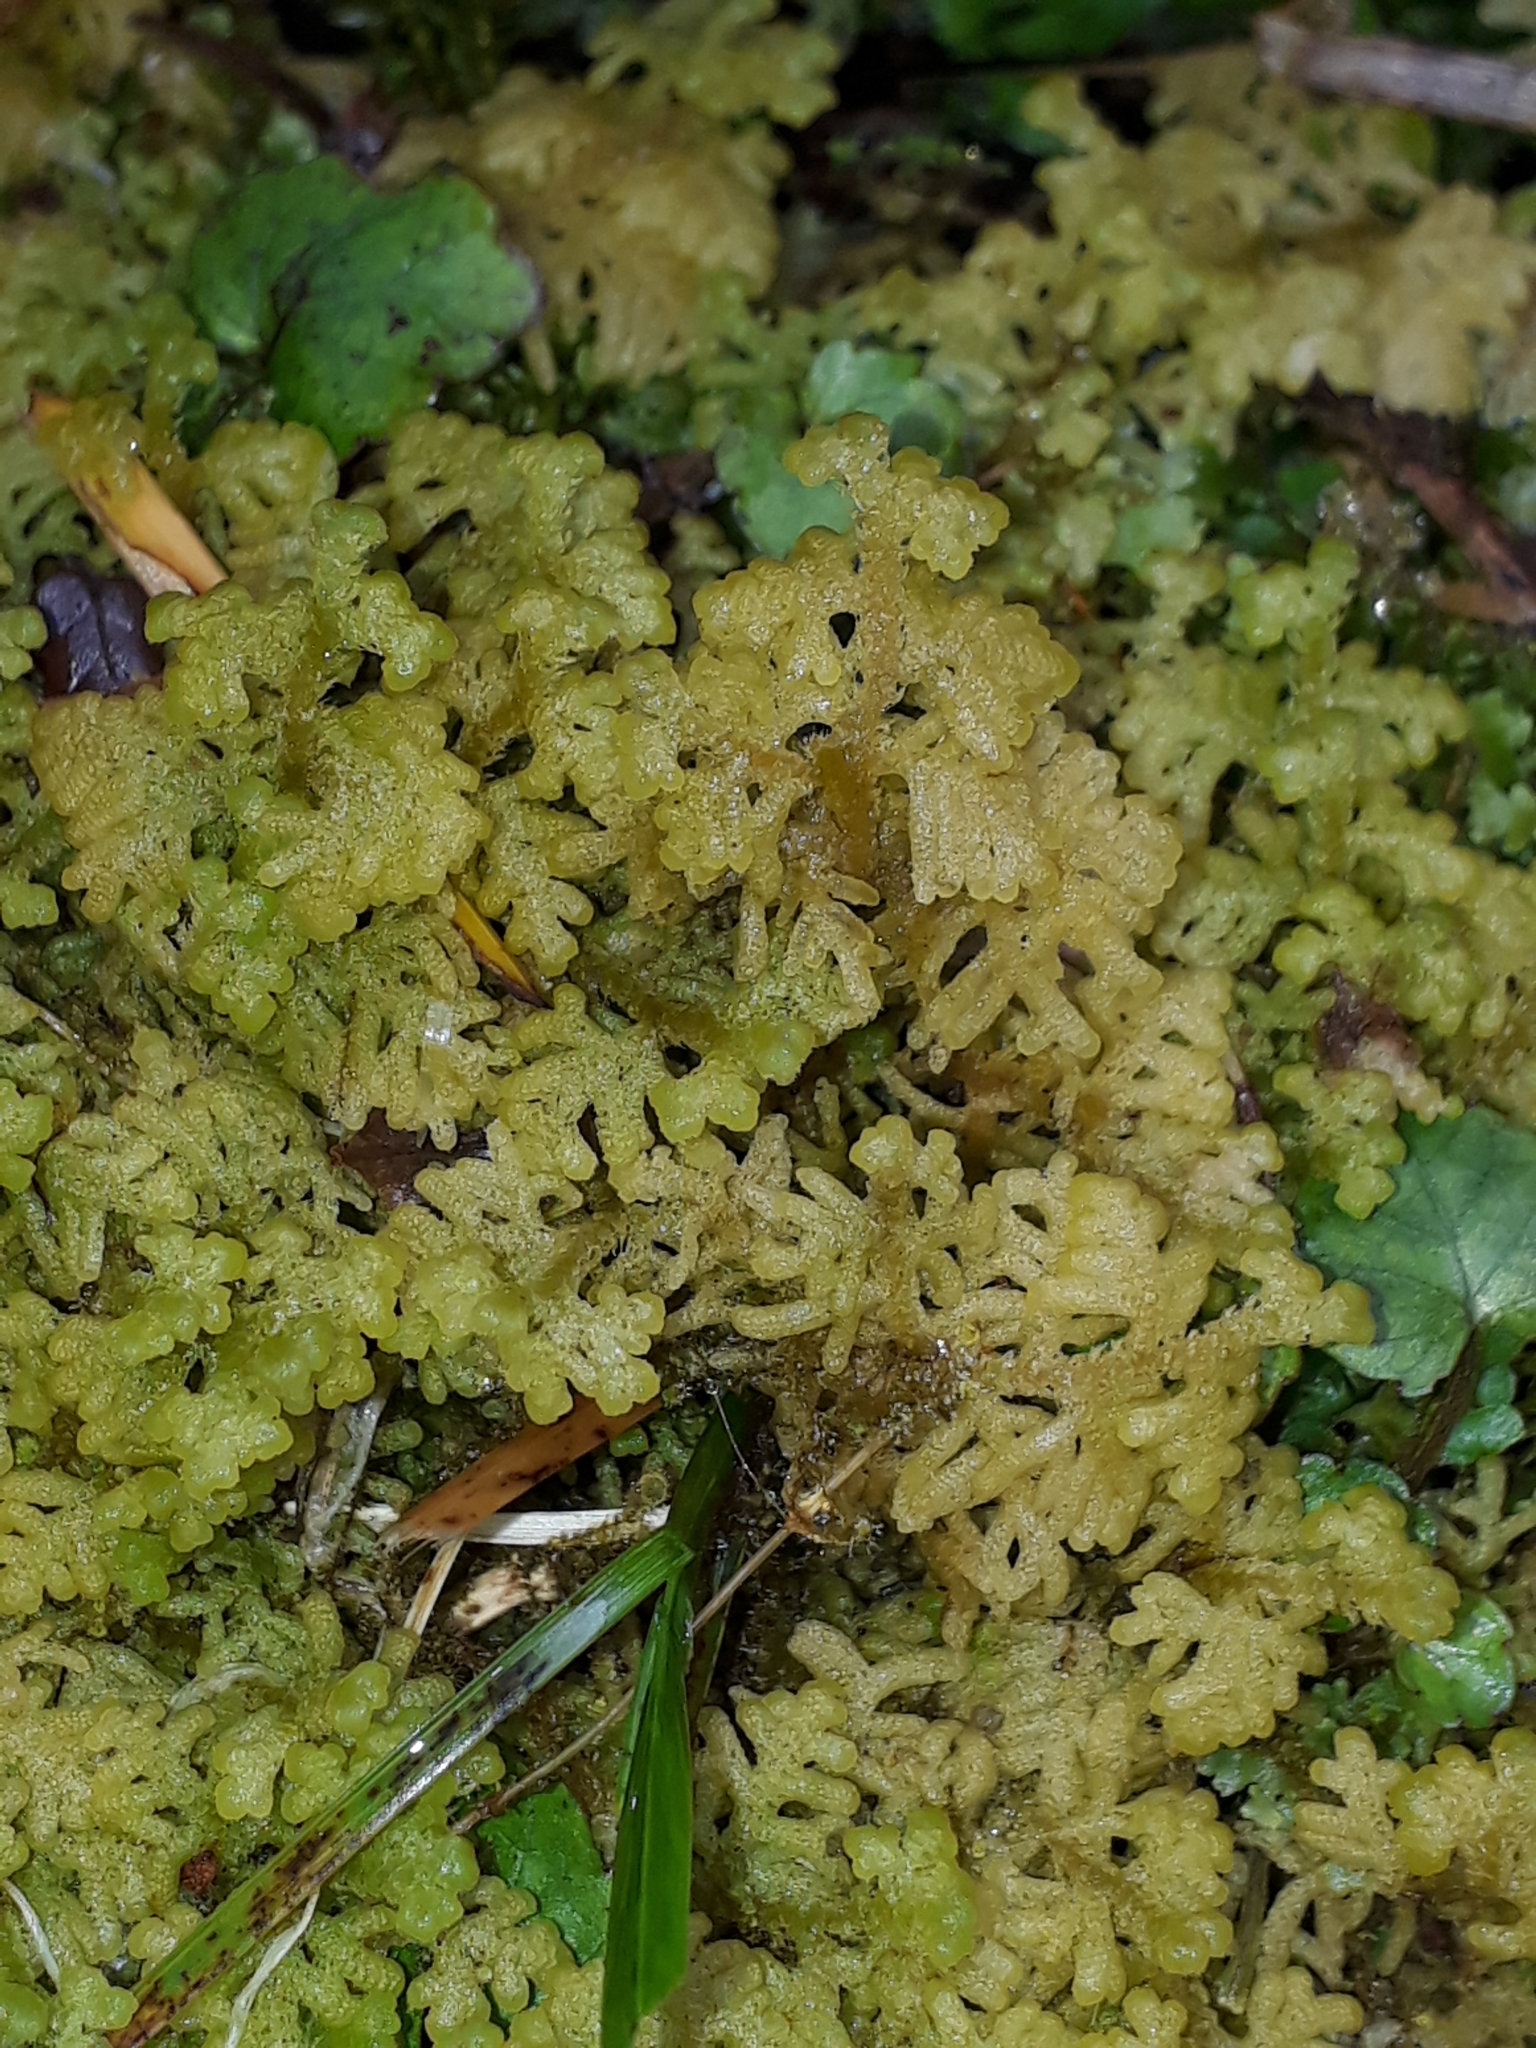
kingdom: Plantae
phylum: Marchantiophyta
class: Jungermanniopsida
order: Jungermanniales
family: Trichocoleaceae
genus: Trichocolea
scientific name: Trichocolea mollissima
